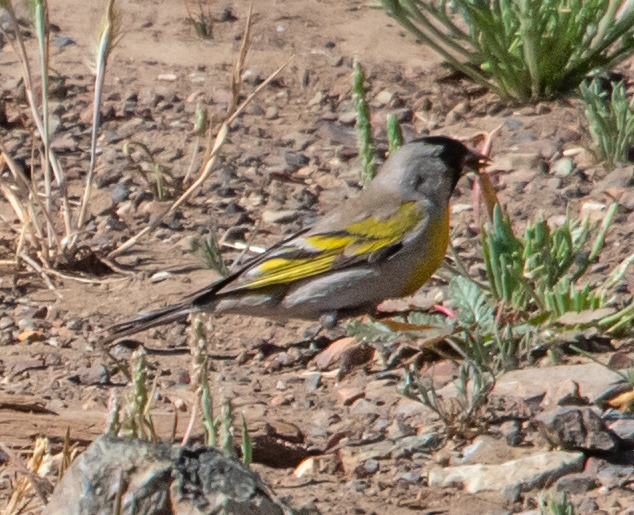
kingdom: Animalia
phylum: Chordata
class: Aves
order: Passeriformes
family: Fringillidae
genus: Spinus
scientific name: Spinus lawrencei
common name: Lawrence's goldfinch
